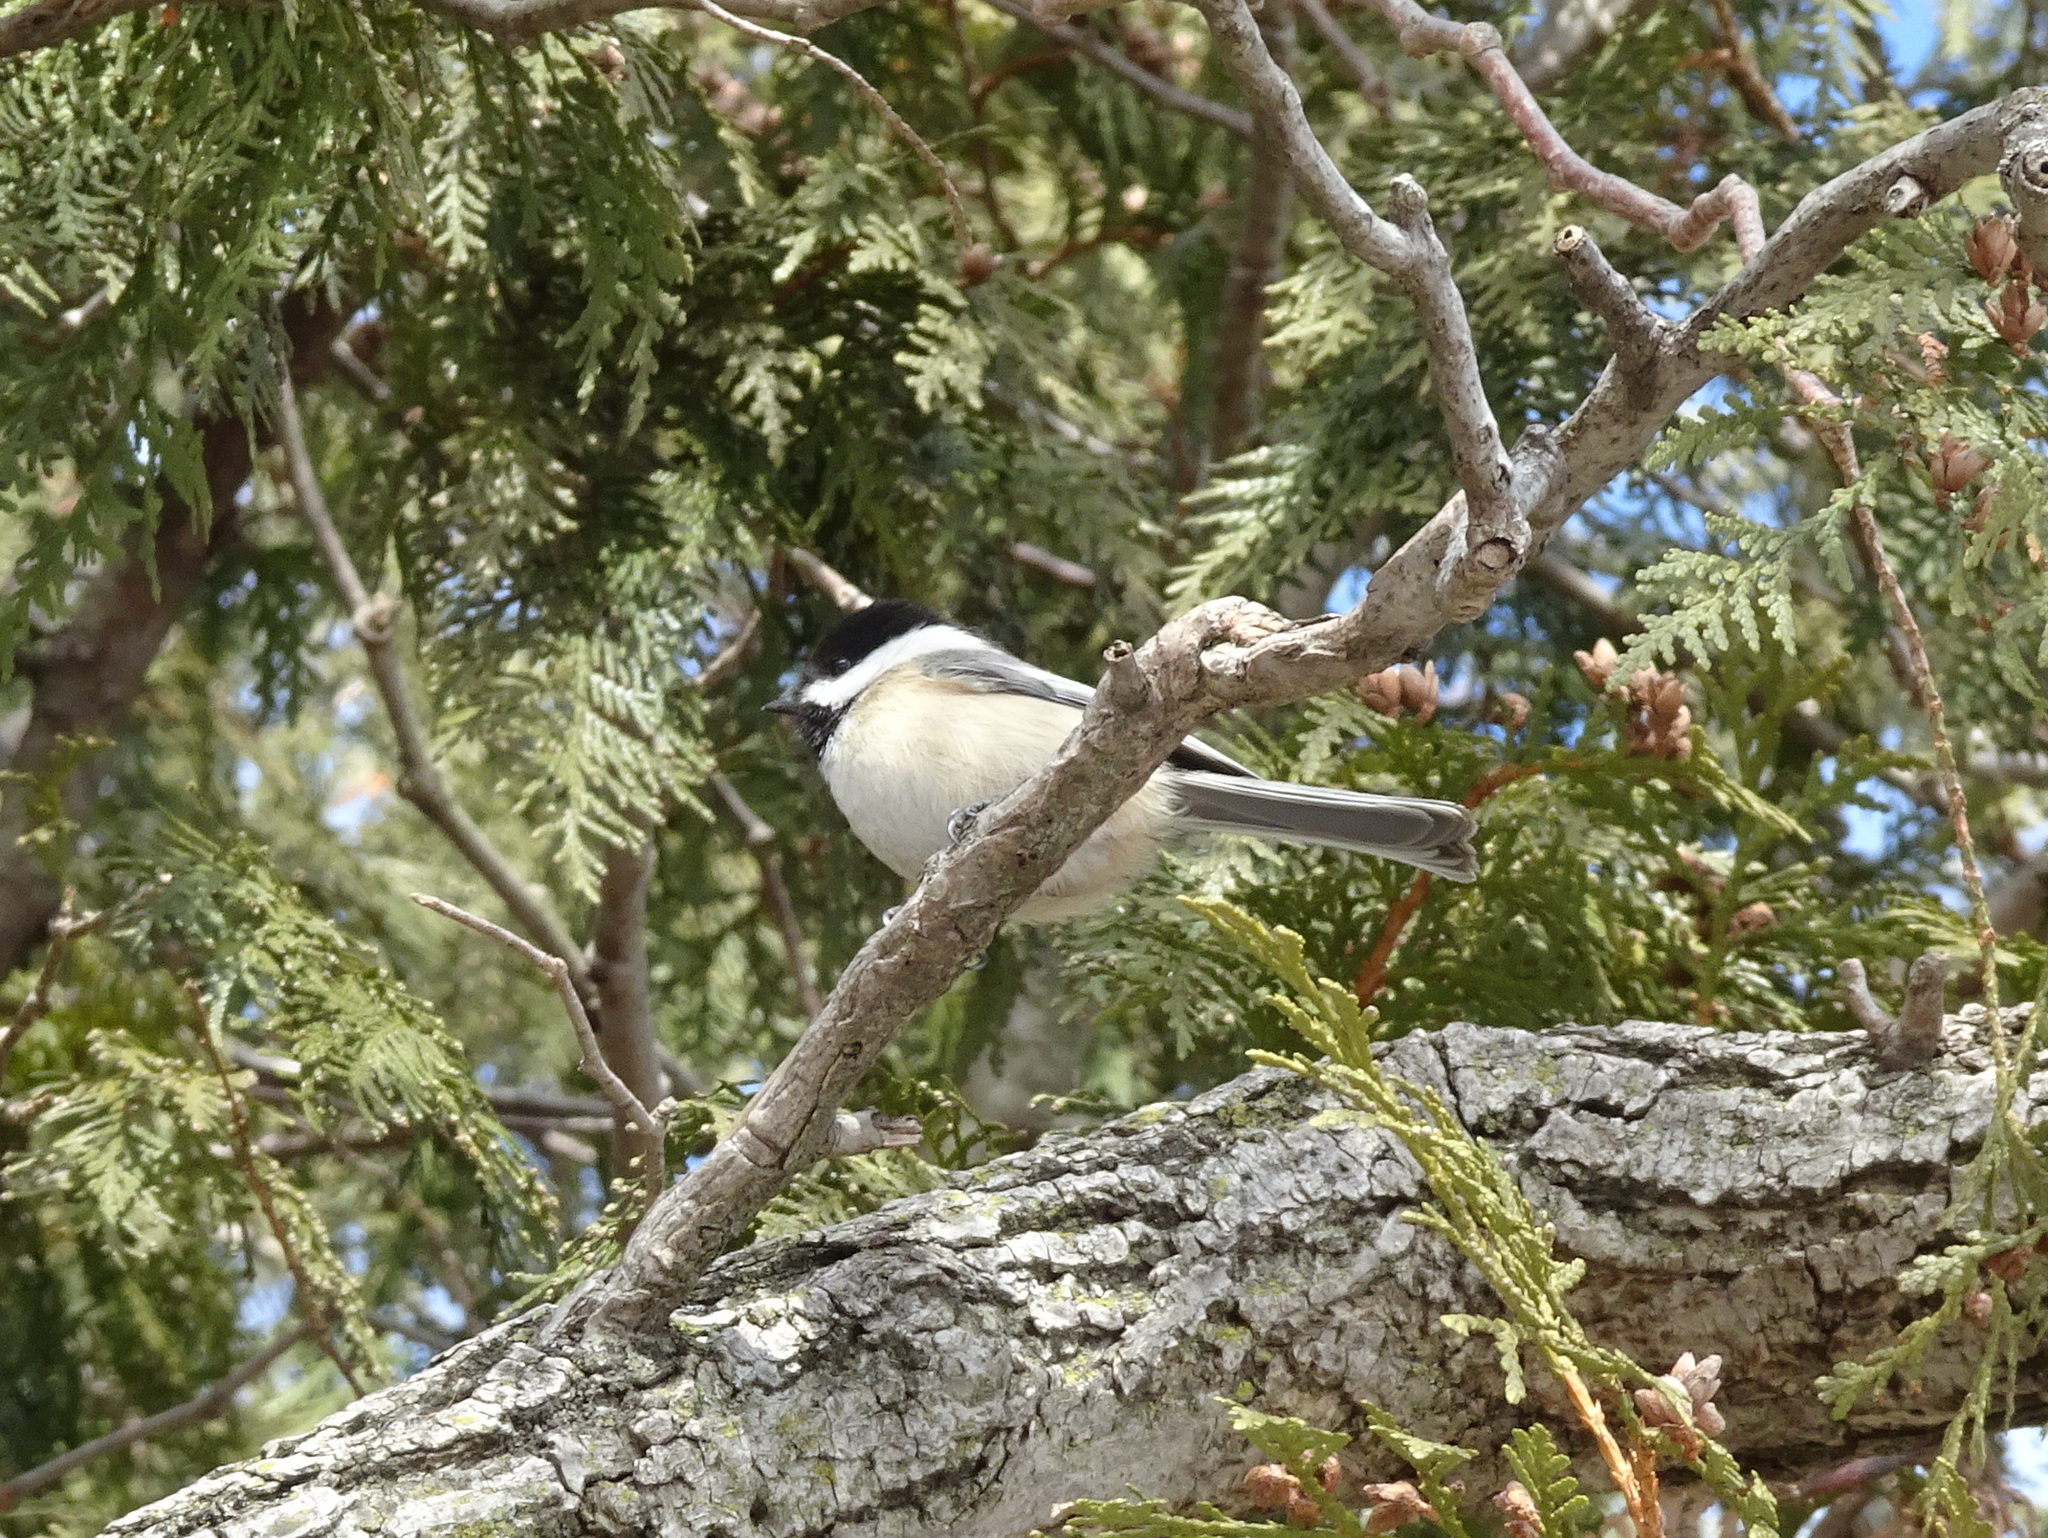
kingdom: Animalia
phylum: Chordata
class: Aves
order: Passeriformes
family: Paridae
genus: Poecile
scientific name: Poecile atricapillus
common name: Black-capped chickadee
